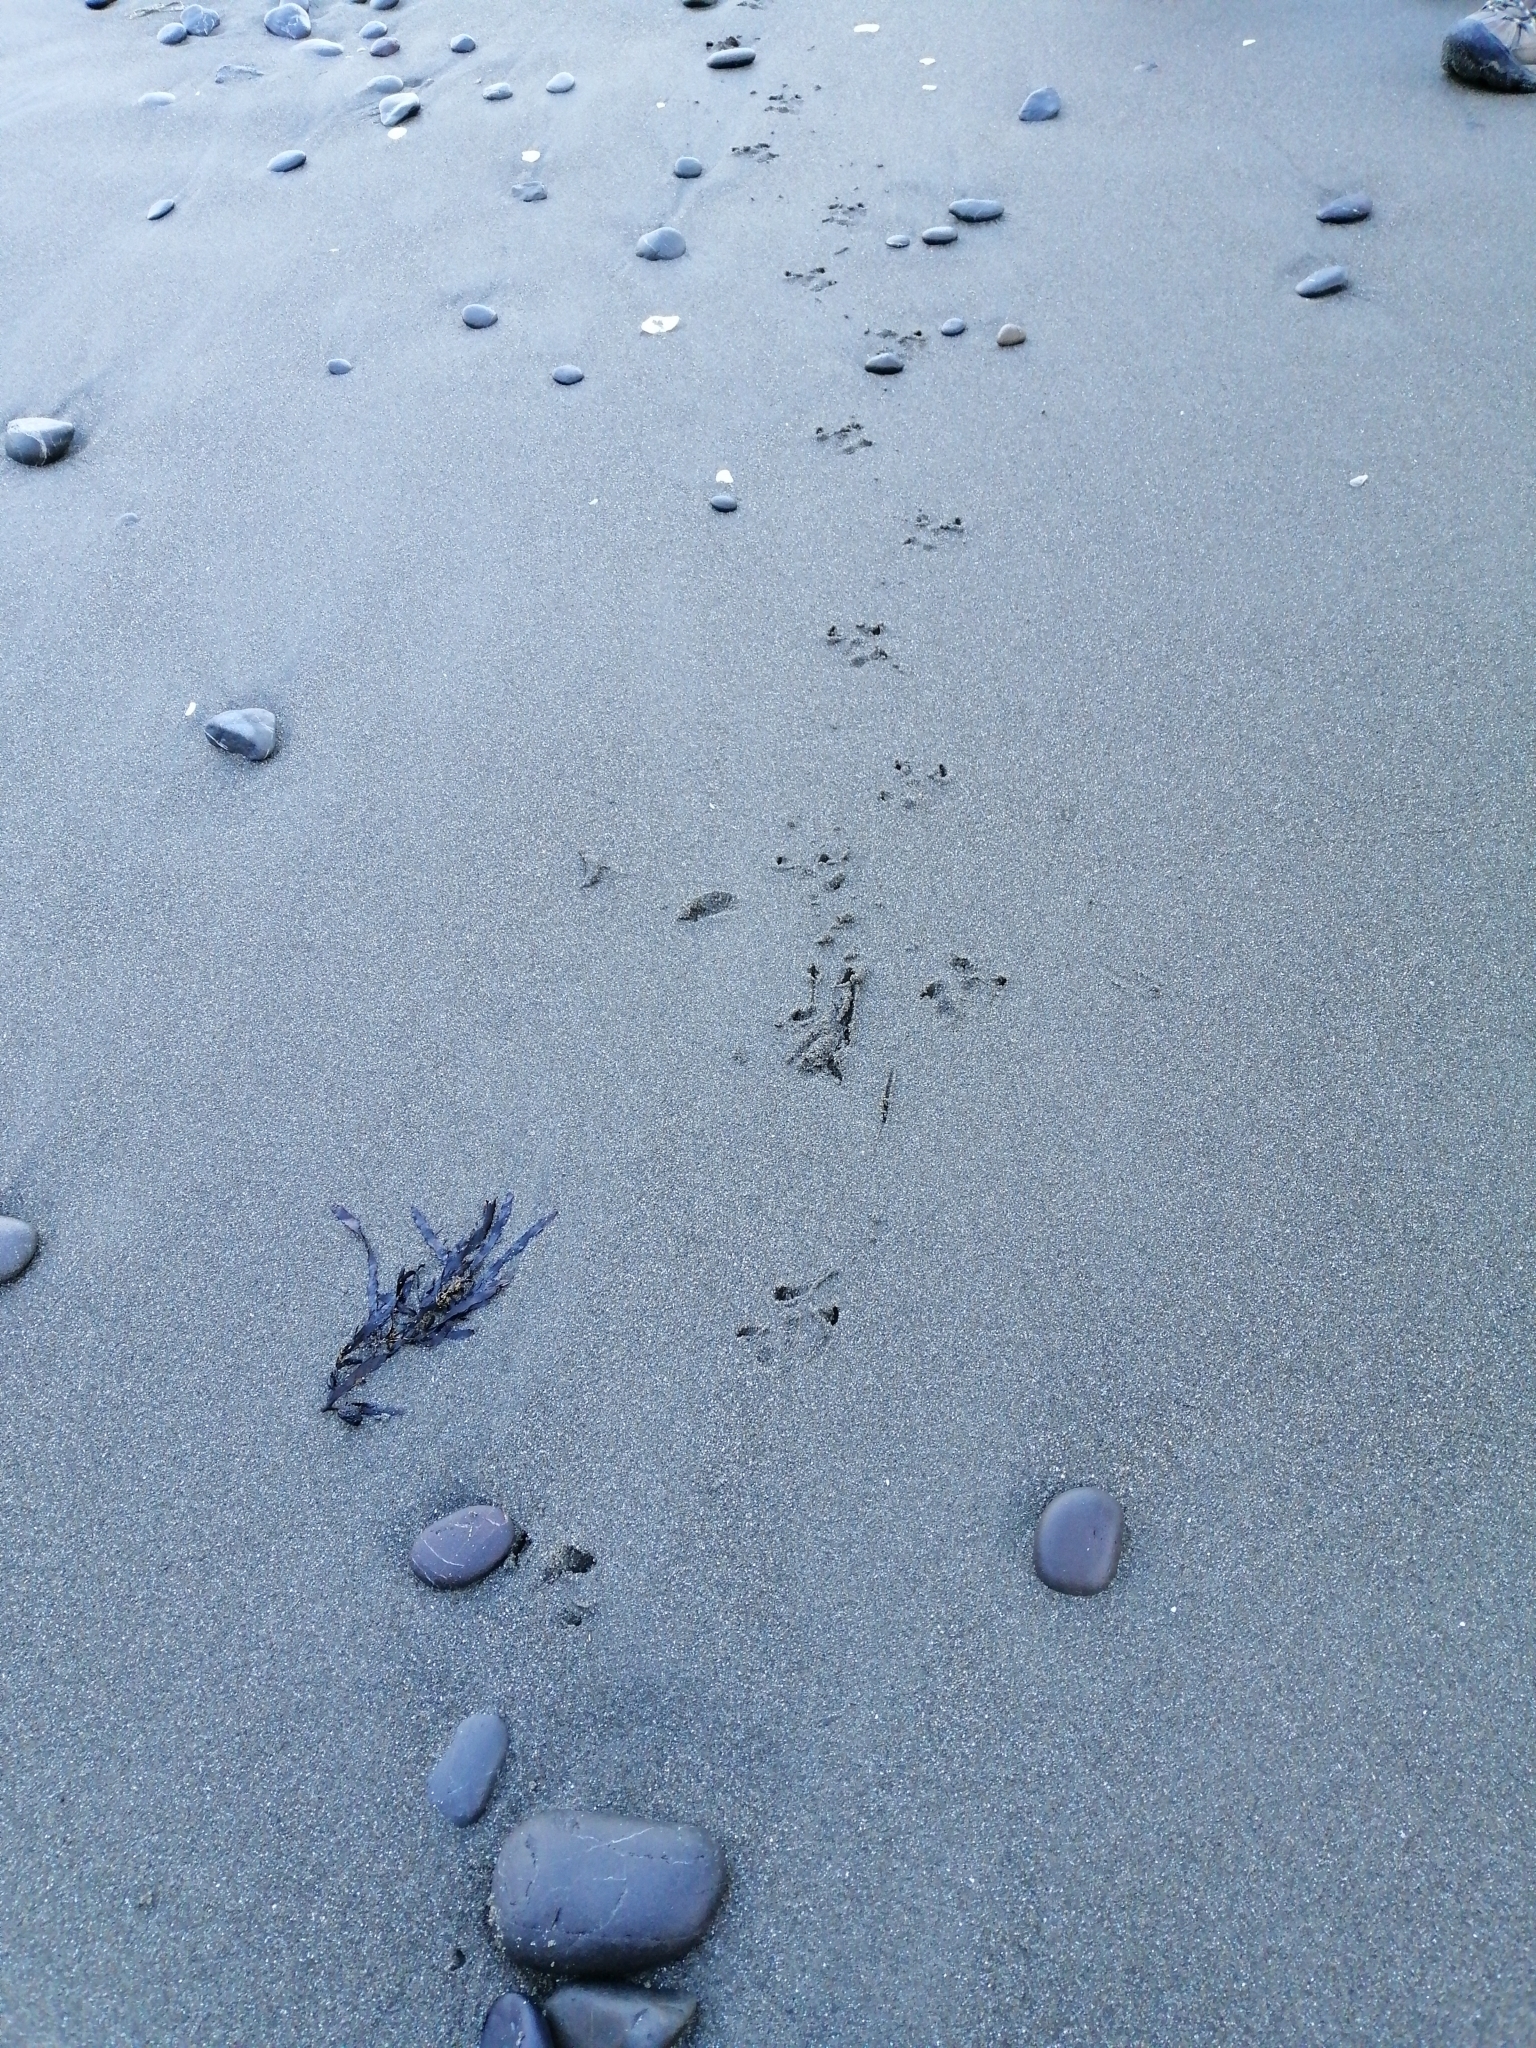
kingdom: Animalia
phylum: Chordata
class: Aves
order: Sphenisciformes
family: Spheniscidae
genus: Eudyptula
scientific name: Eudyptula minor
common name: Little penguin
